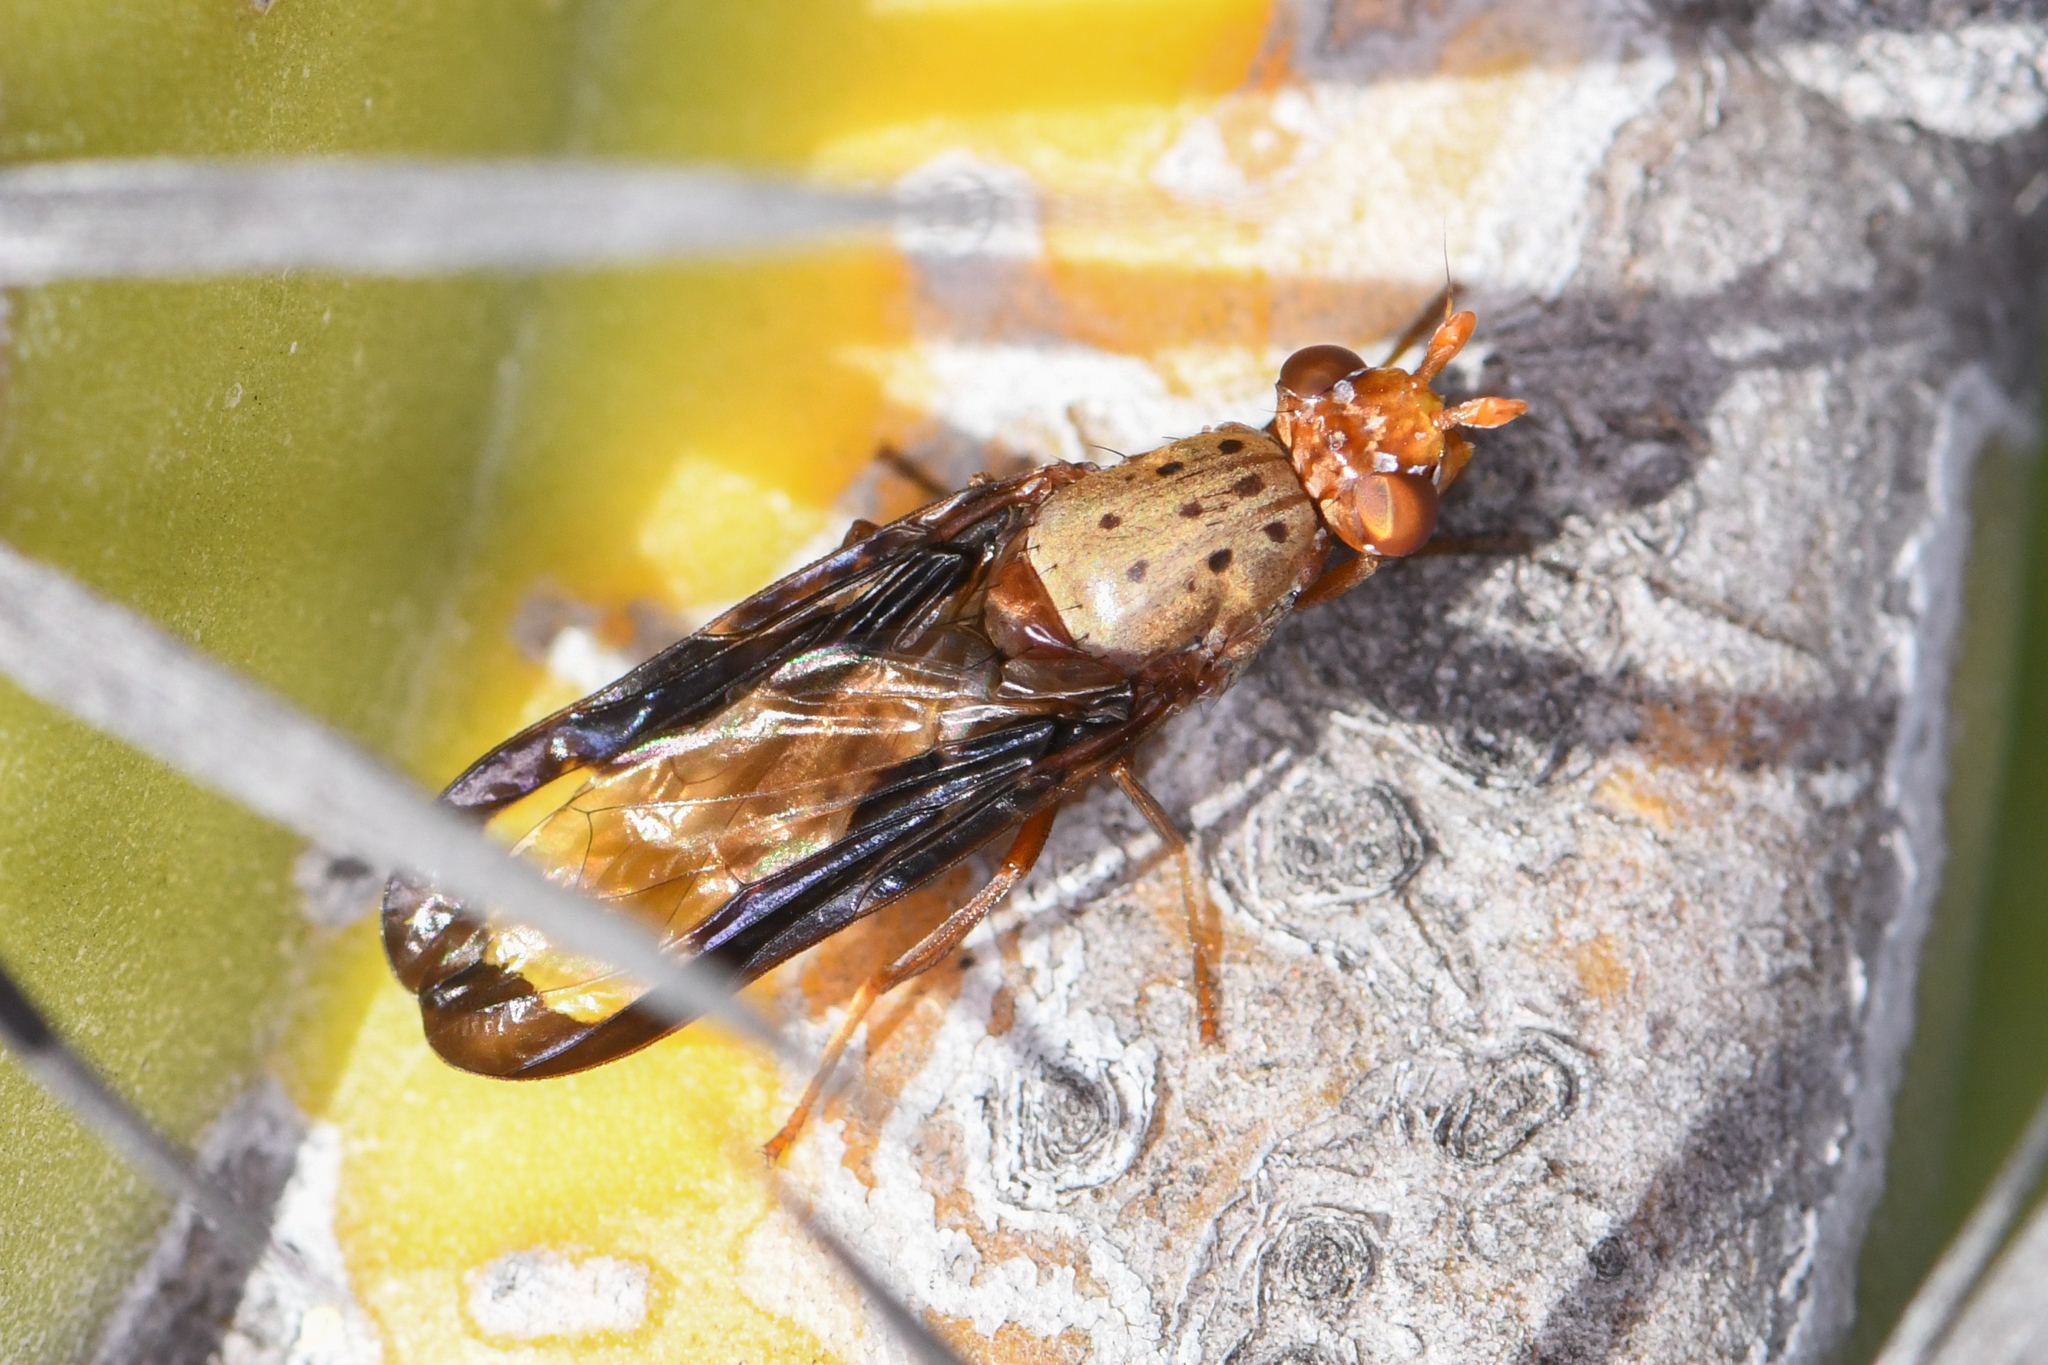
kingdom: Animalia
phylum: Arthropoda
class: Insecta
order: Diptera
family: Ulidiidae
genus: Diacrita
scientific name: Diacrita costalis
